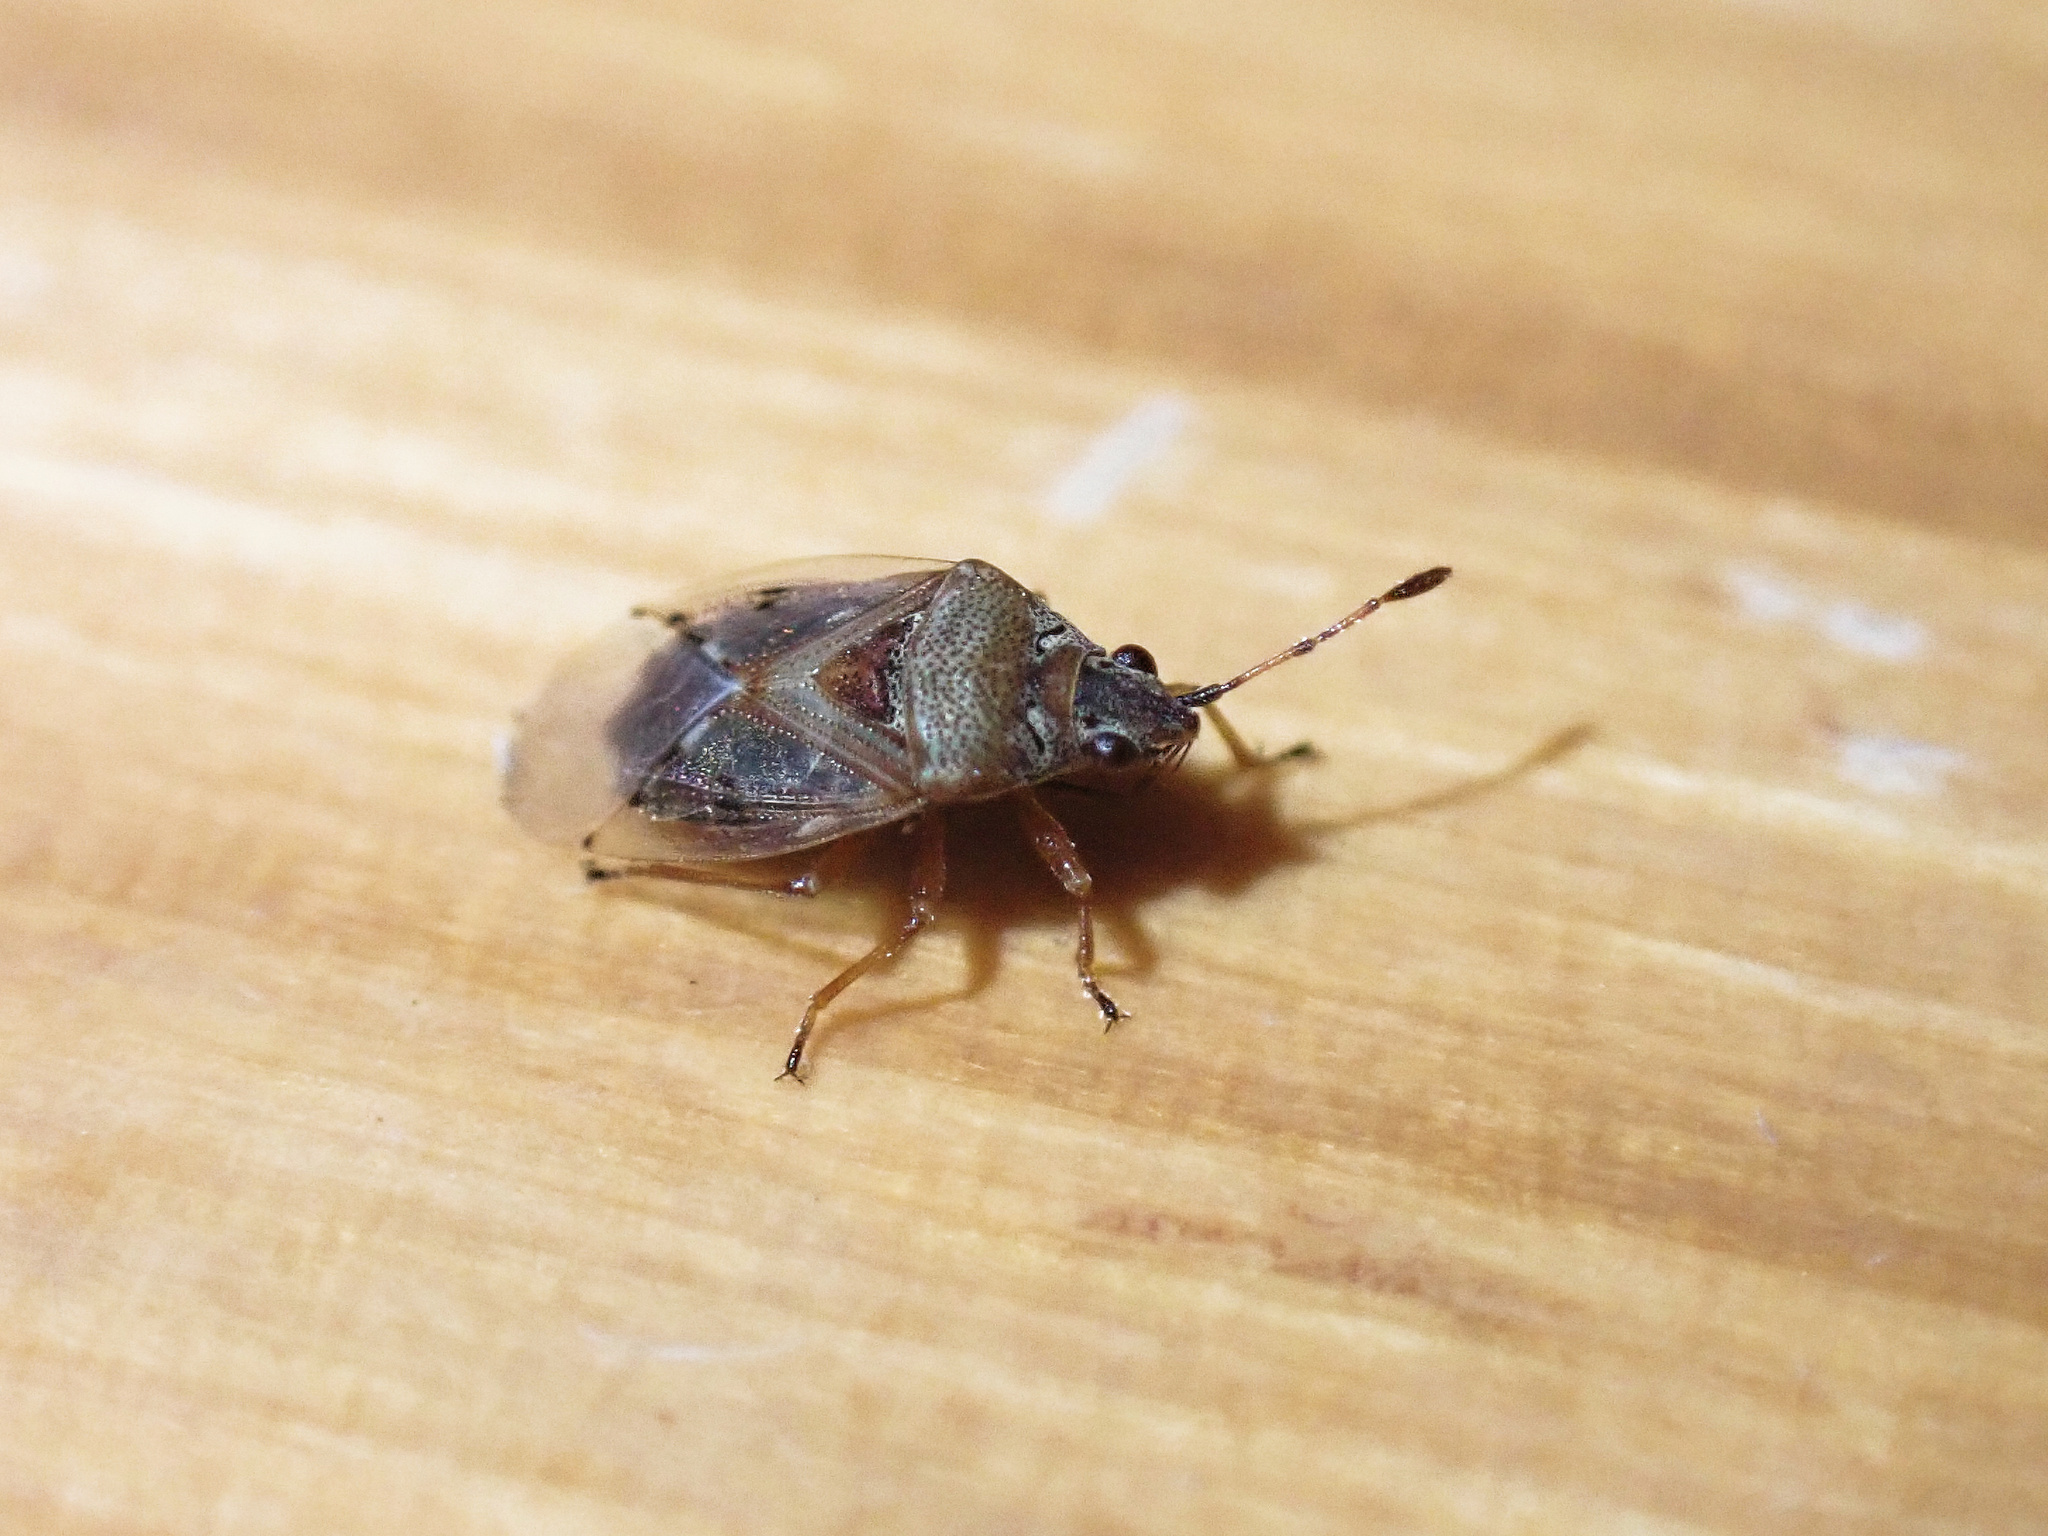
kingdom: Animalia
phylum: Arthropoda
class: Insecta
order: Hemiptera
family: Lygaeidae
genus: Kleidocerys
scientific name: Kleidocerys resedae
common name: Birch catkin bug
